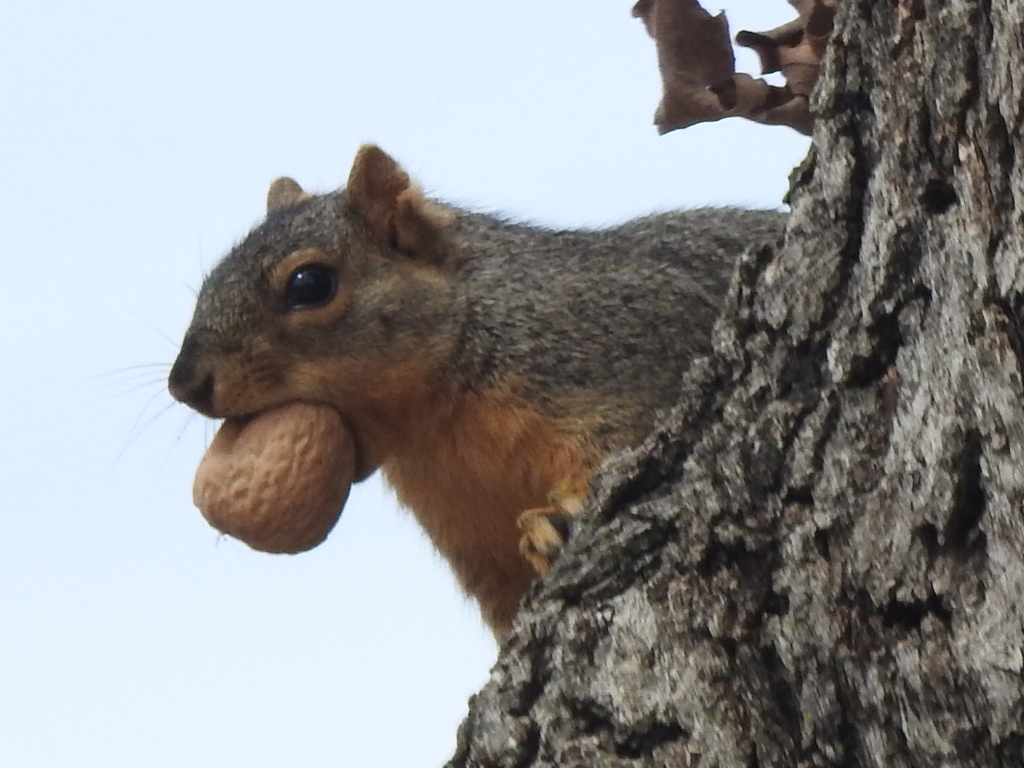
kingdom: Animalia
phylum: Chordata
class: Mammalia
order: Rodentia
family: Sciuridae
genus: Sciurus
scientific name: Sciurus niger
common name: Fox squirrel
